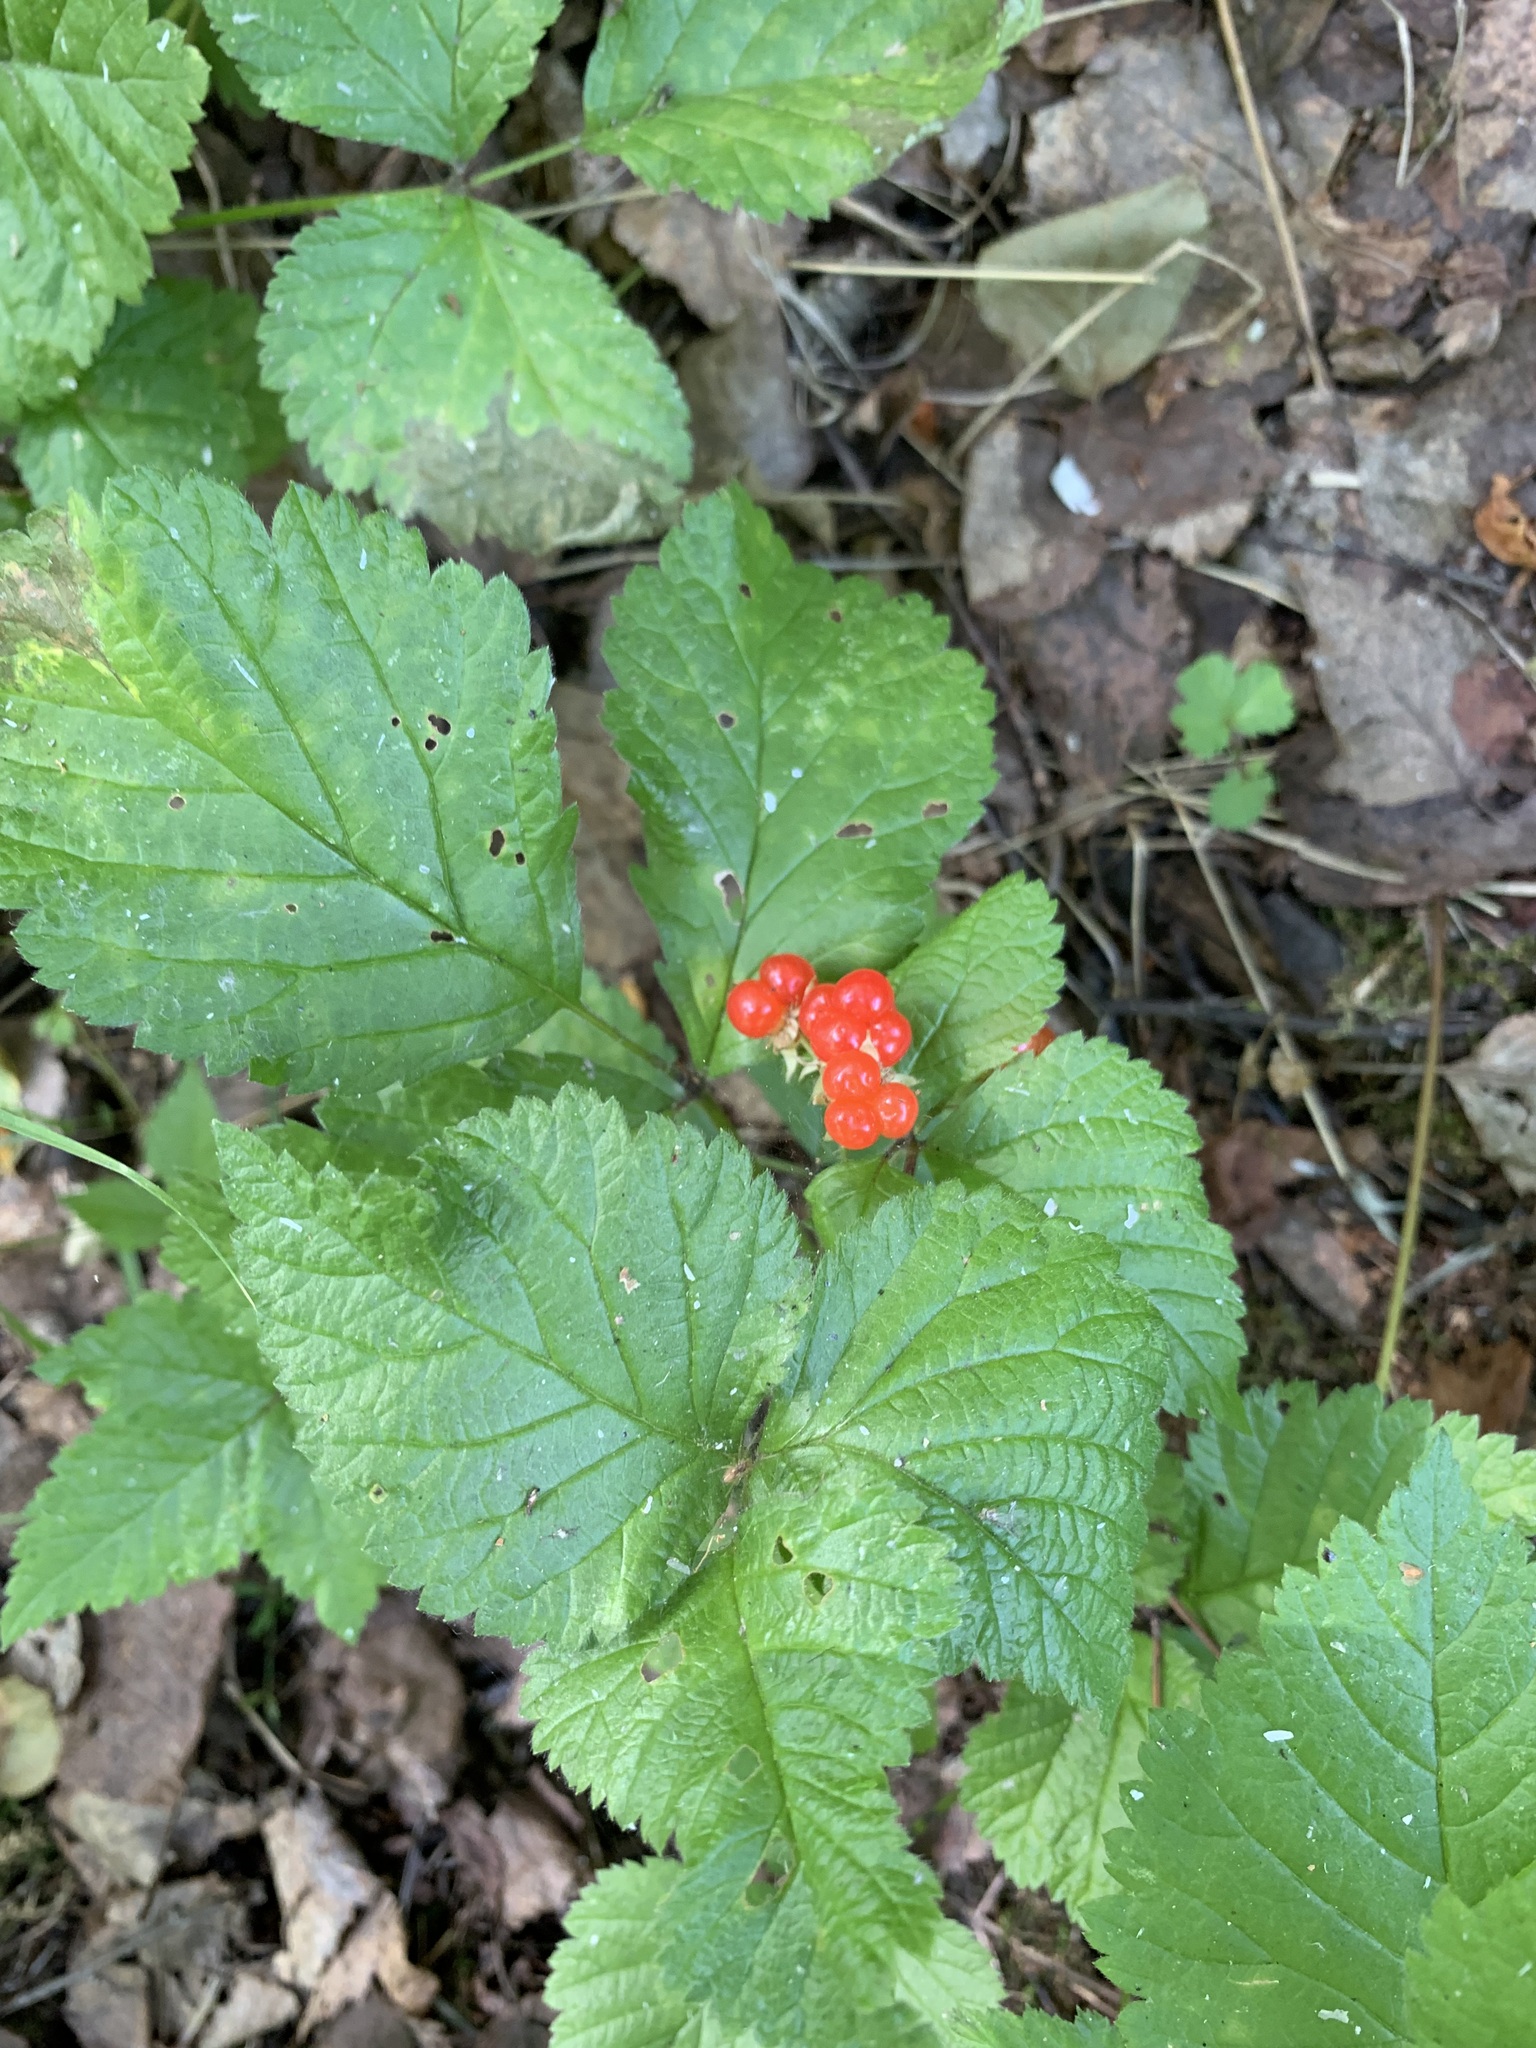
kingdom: Plantae
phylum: Tracheophyta
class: Magnoliopsida
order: Rosales
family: Rosaceae
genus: Rubus
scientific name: Rubus saxatilis
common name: Stone bramble
